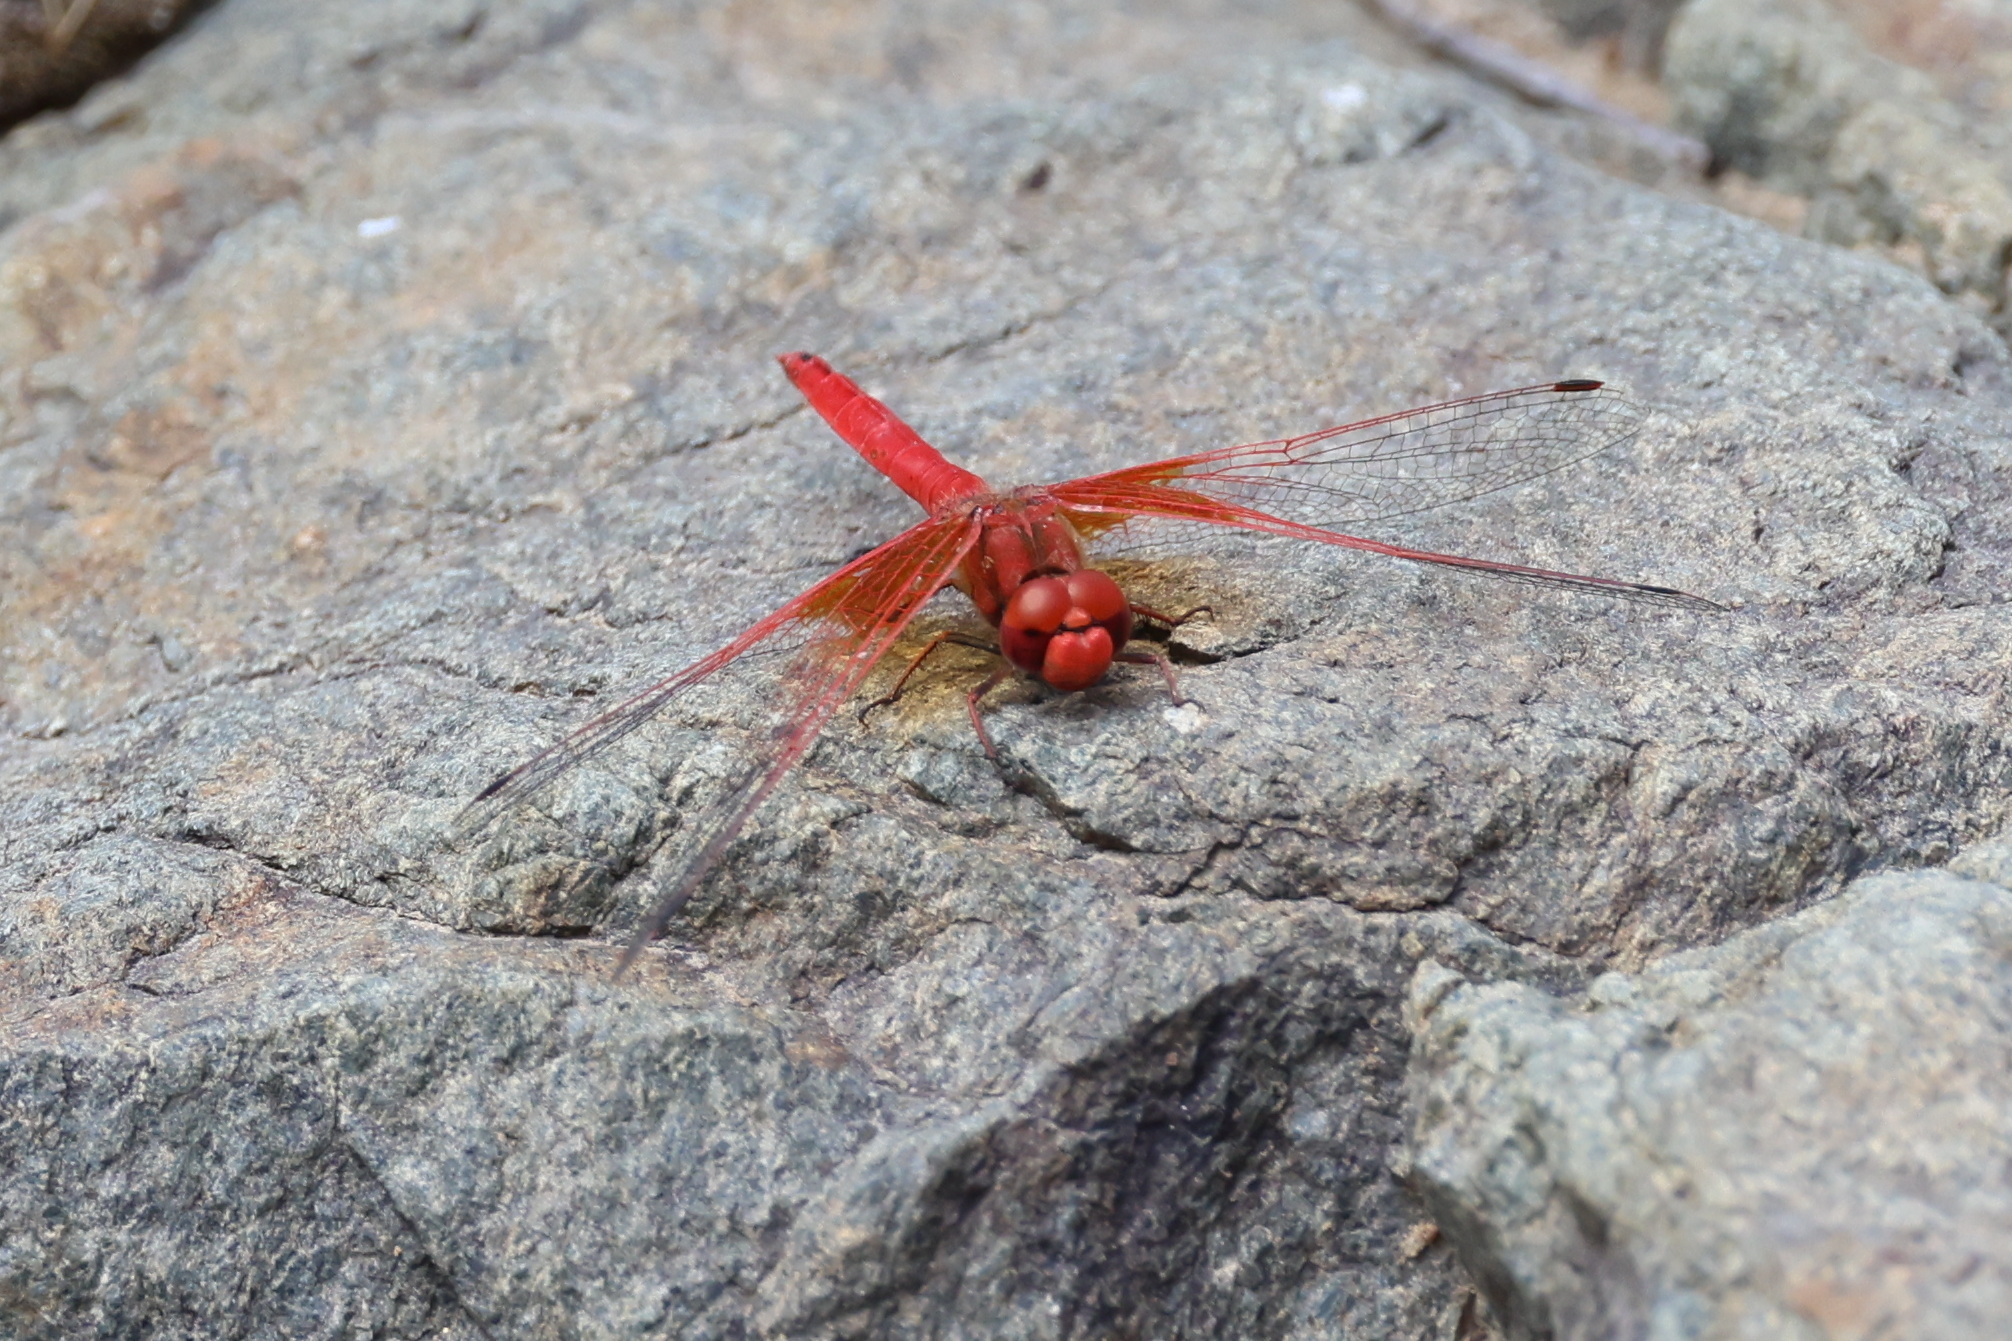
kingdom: Animalia
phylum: Arthropoda
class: Insecta
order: Odonata
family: Libellulidae
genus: Trithemis
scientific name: Trithemis kirbyi
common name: Kirby's dropwing
